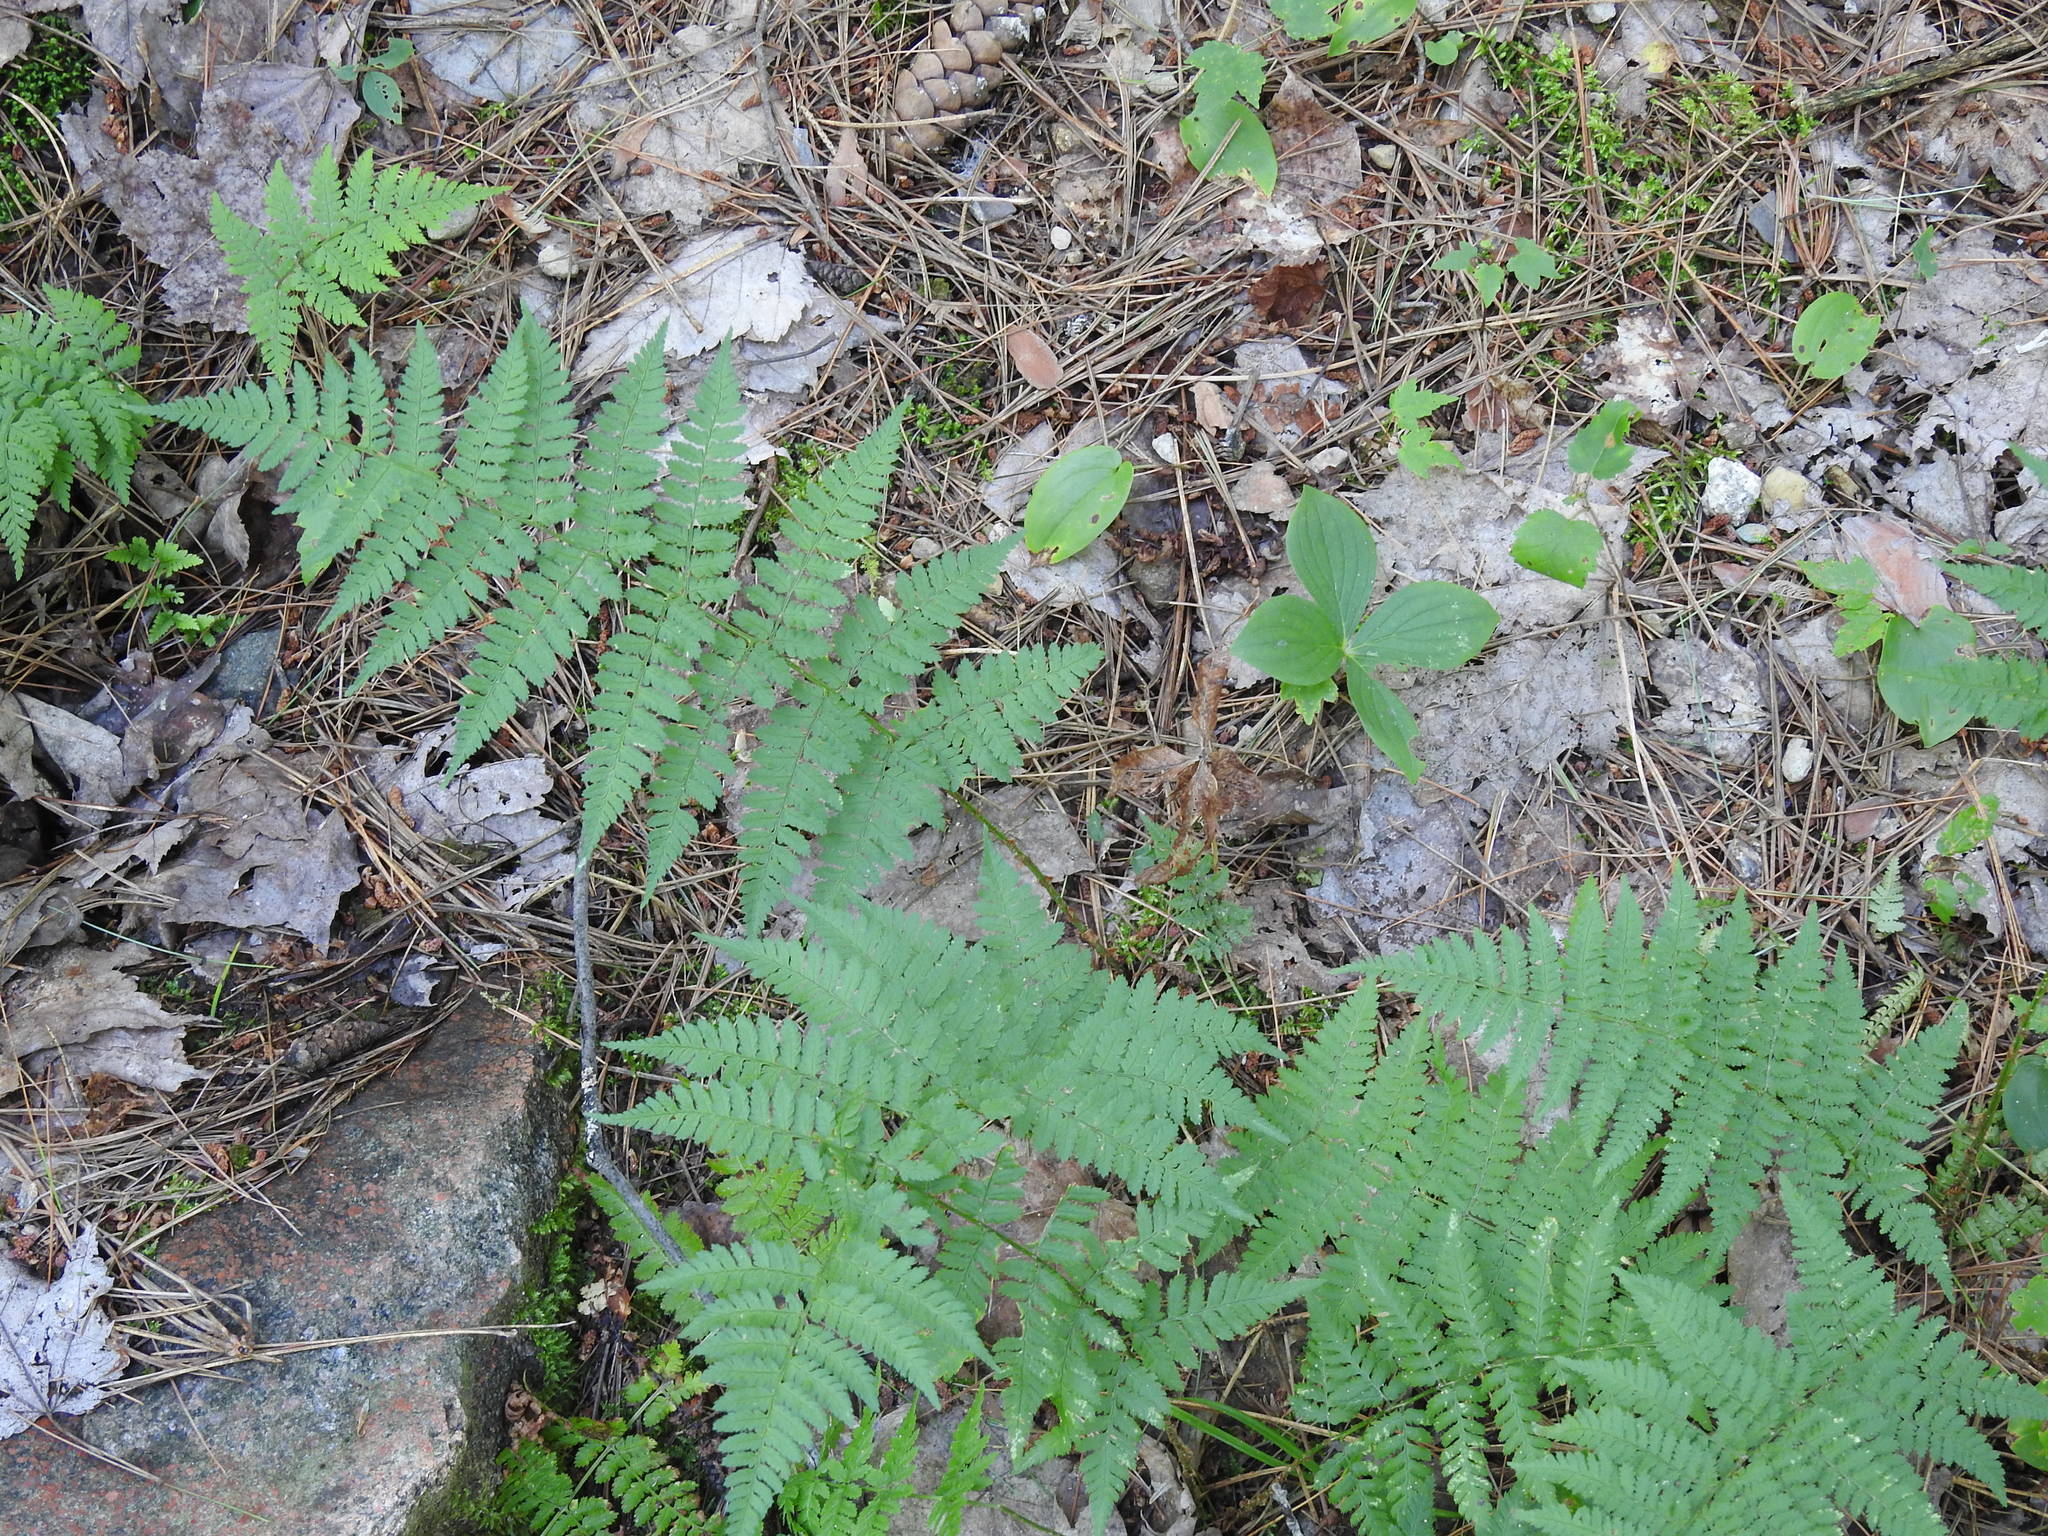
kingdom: Plantae
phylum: Tracheophyta
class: Polypodiopsida
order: Polypodiales
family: Dryopteridaceae
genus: Dryopteris
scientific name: Dryopteris intermedia
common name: Evergreen wood fern
